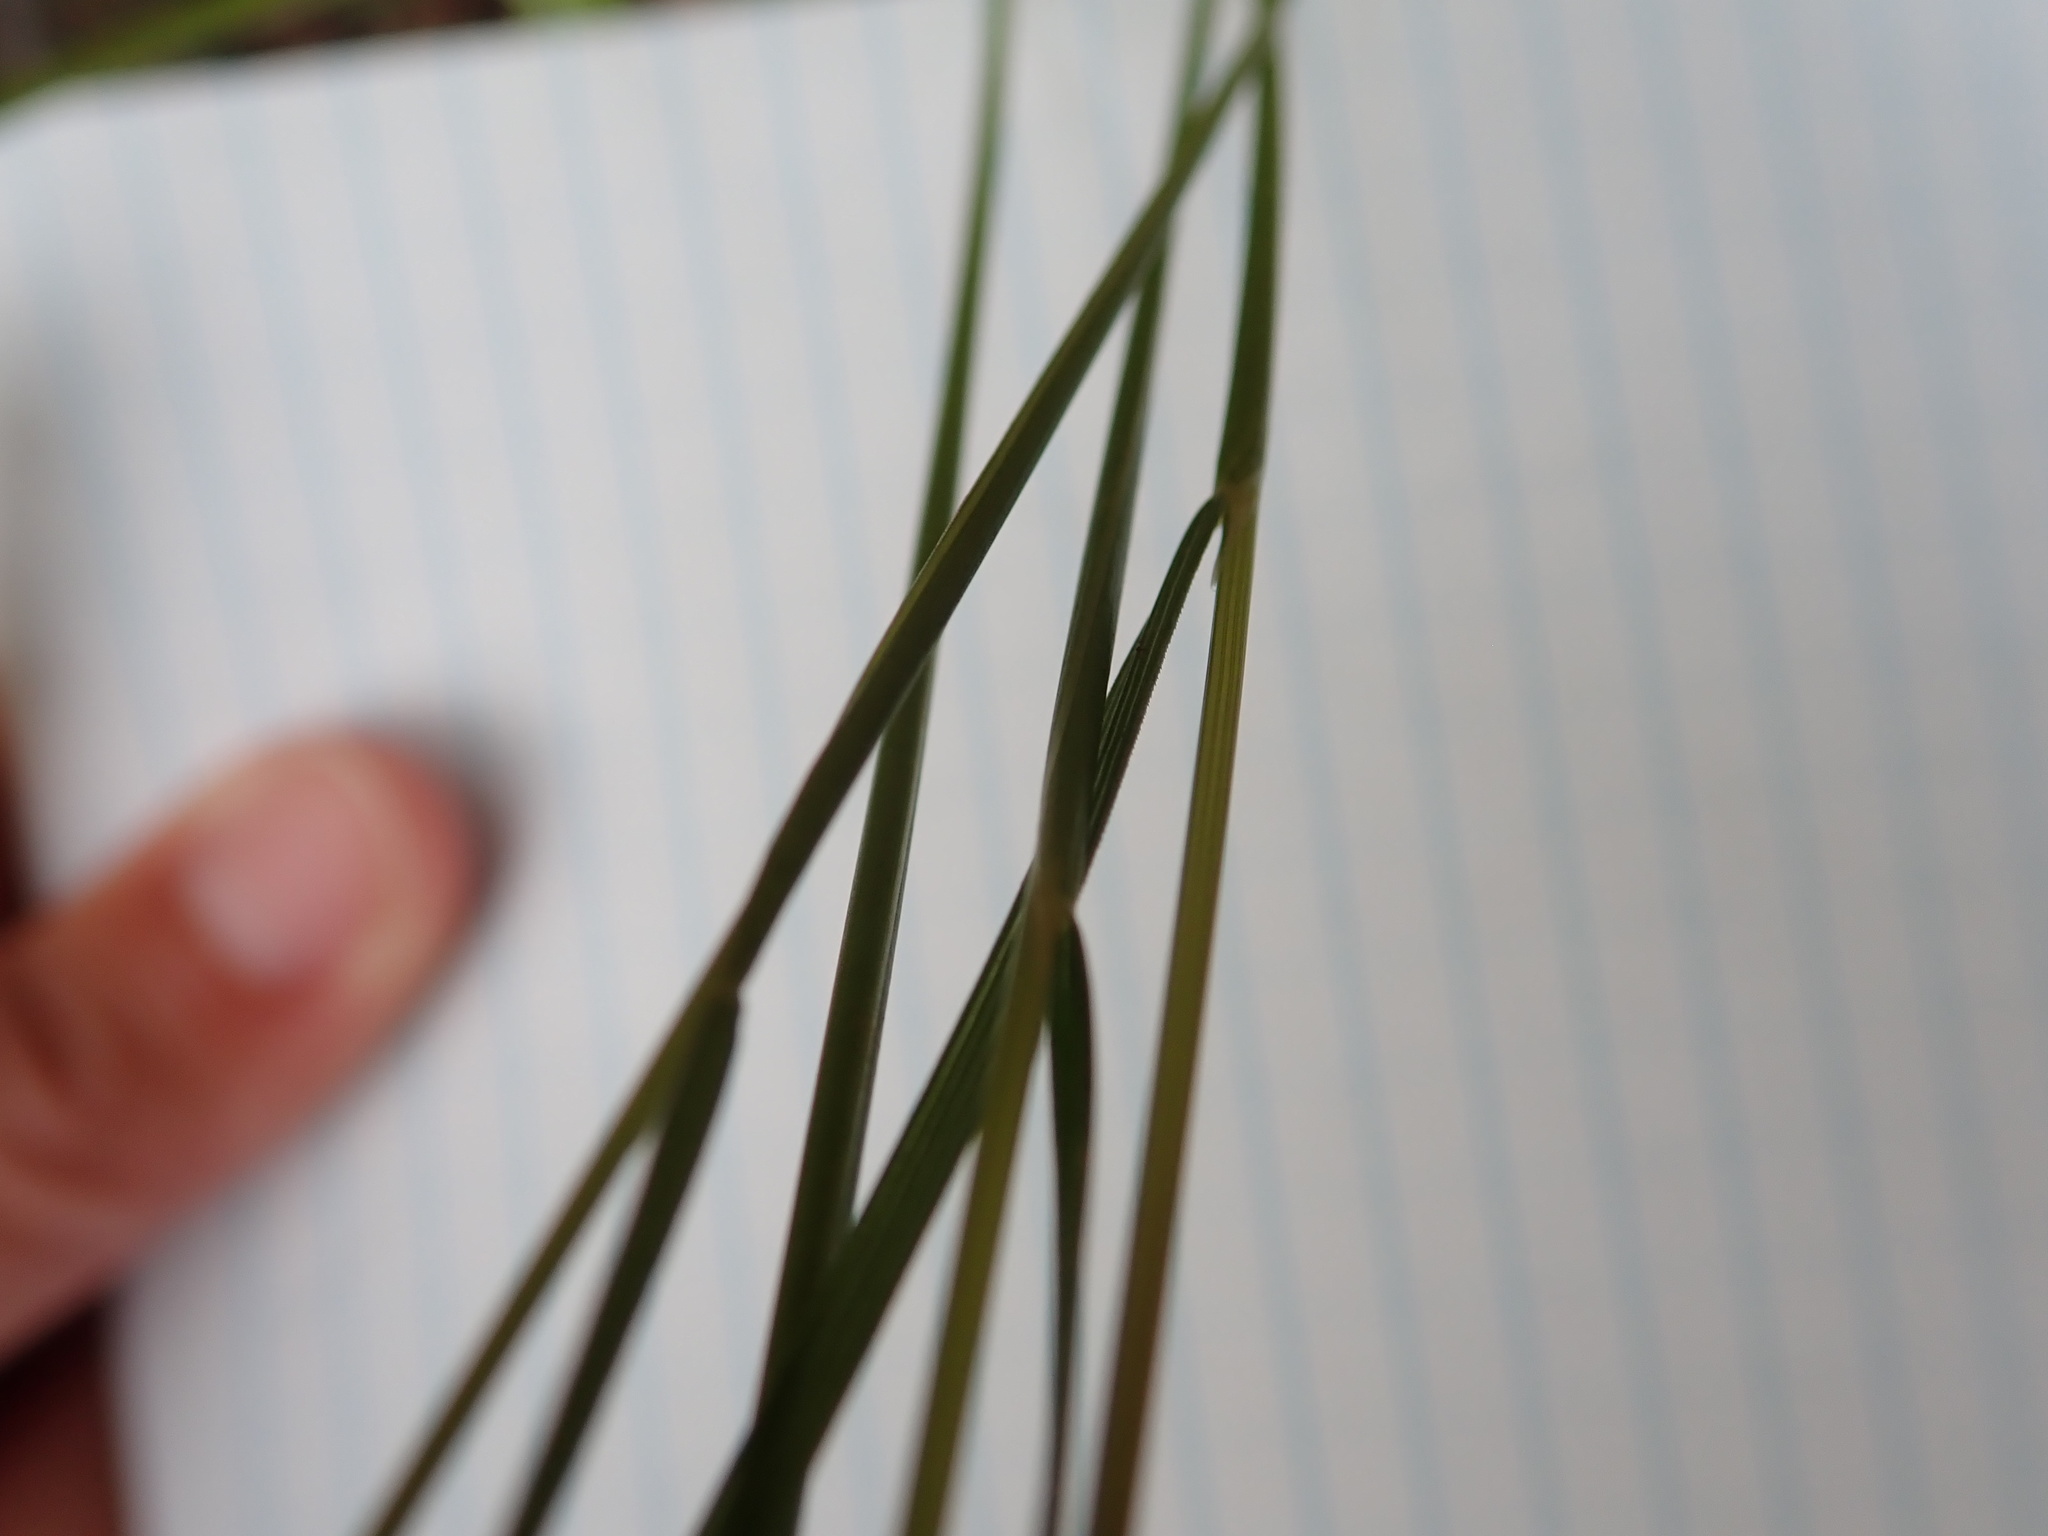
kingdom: Plantae
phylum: Tracheophyta
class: Liliopsida
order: Poales
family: Poaceae
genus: Deschampsia
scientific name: Deschampsia cespitosa
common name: Tufted hair-grass
